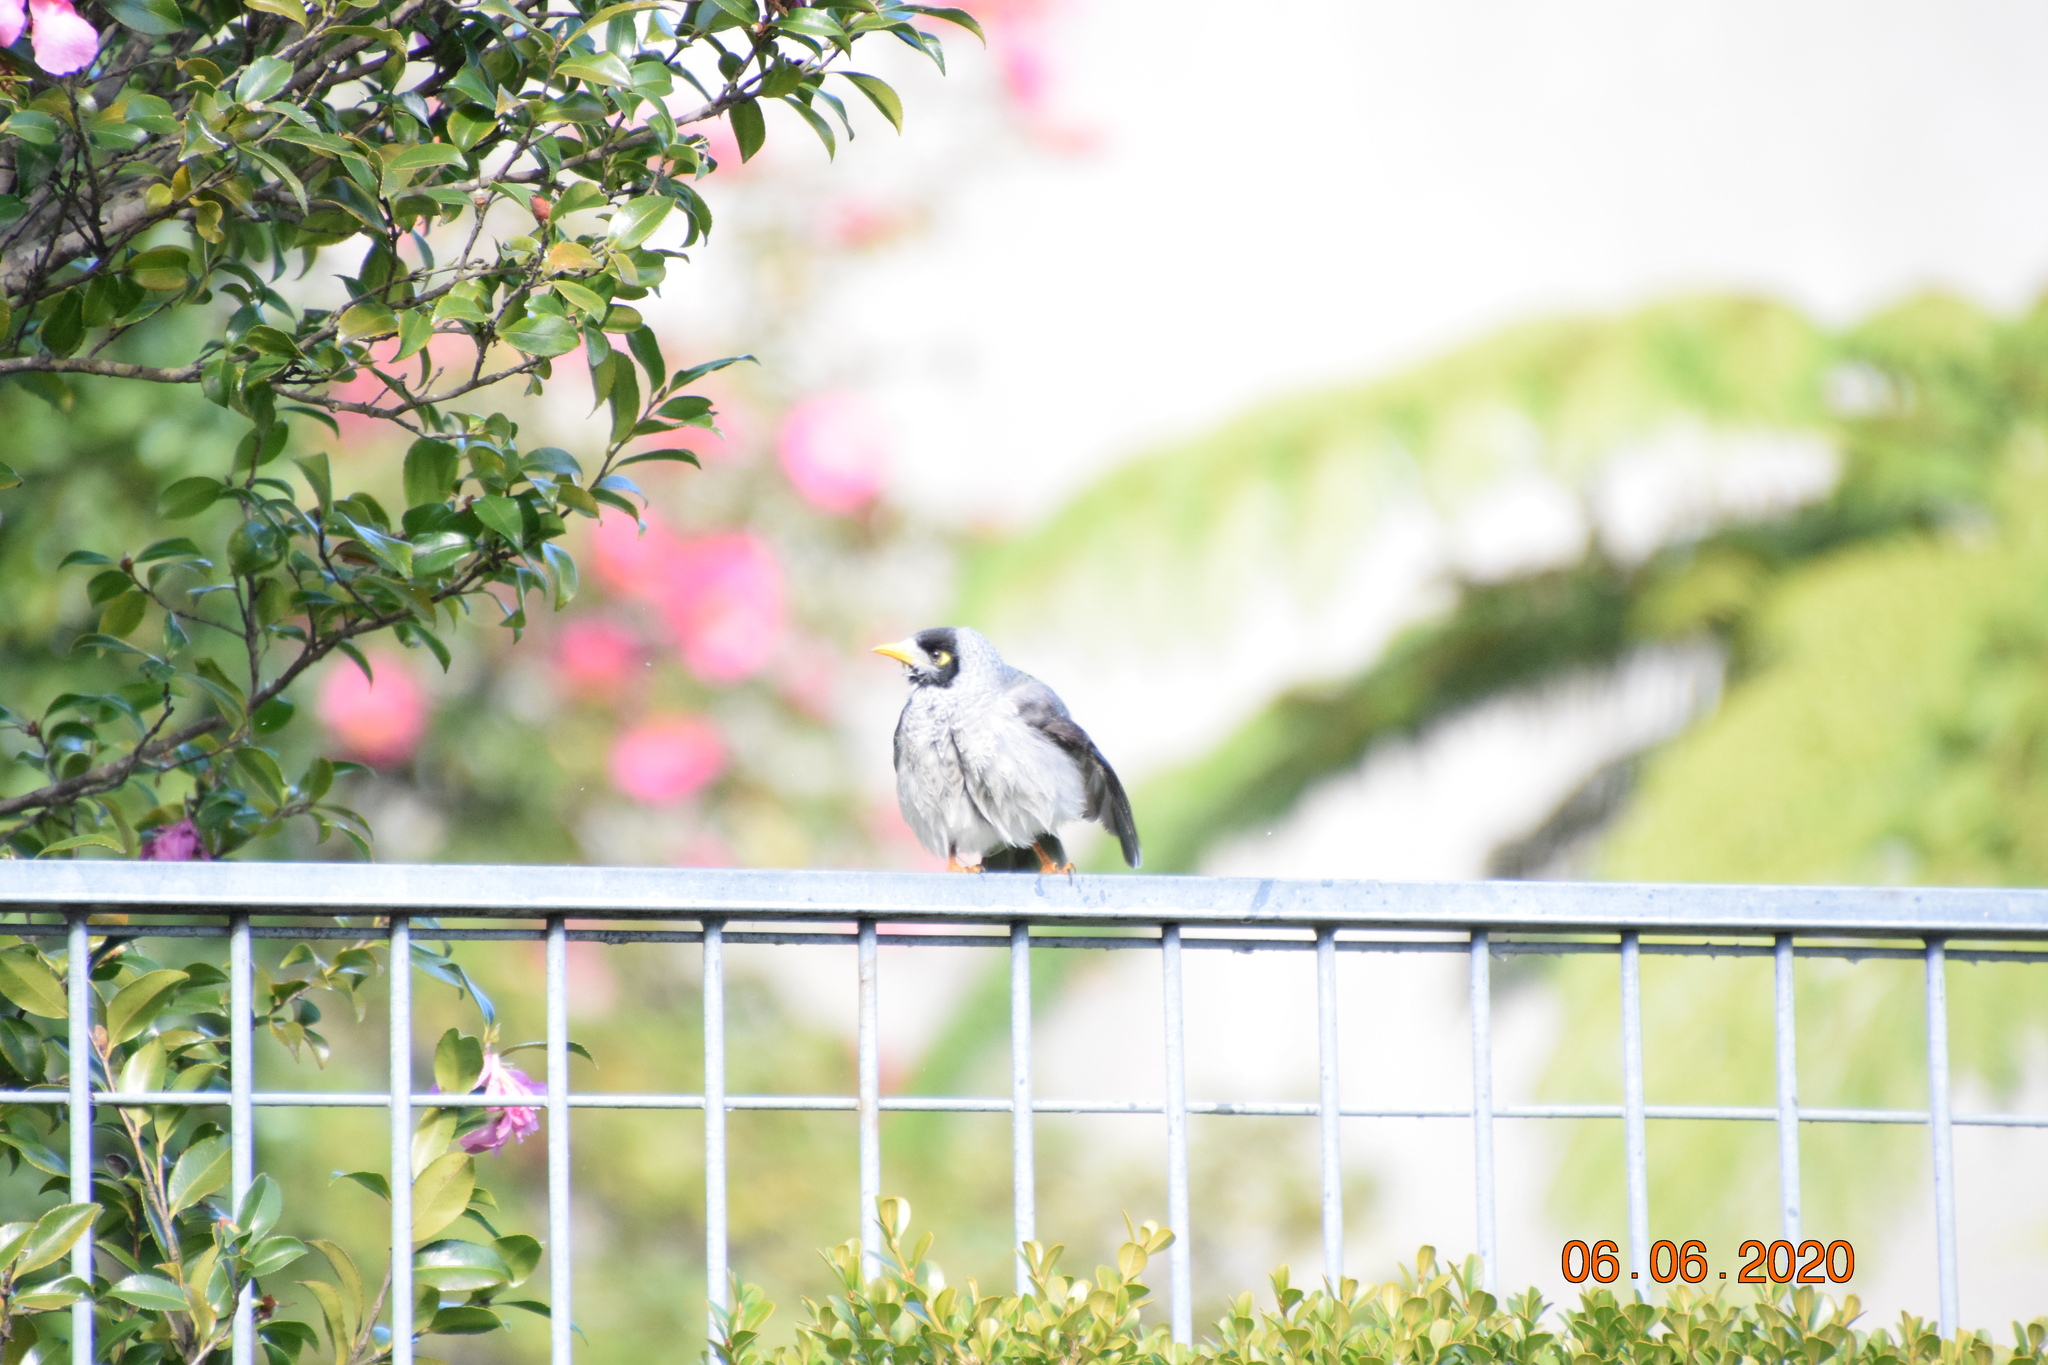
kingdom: Animalia
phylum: Chordata
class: Aves
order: Passeriformes
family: Meliphagidae
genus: Manorina
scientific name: Manorina melanocephala
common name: Noisy miner
